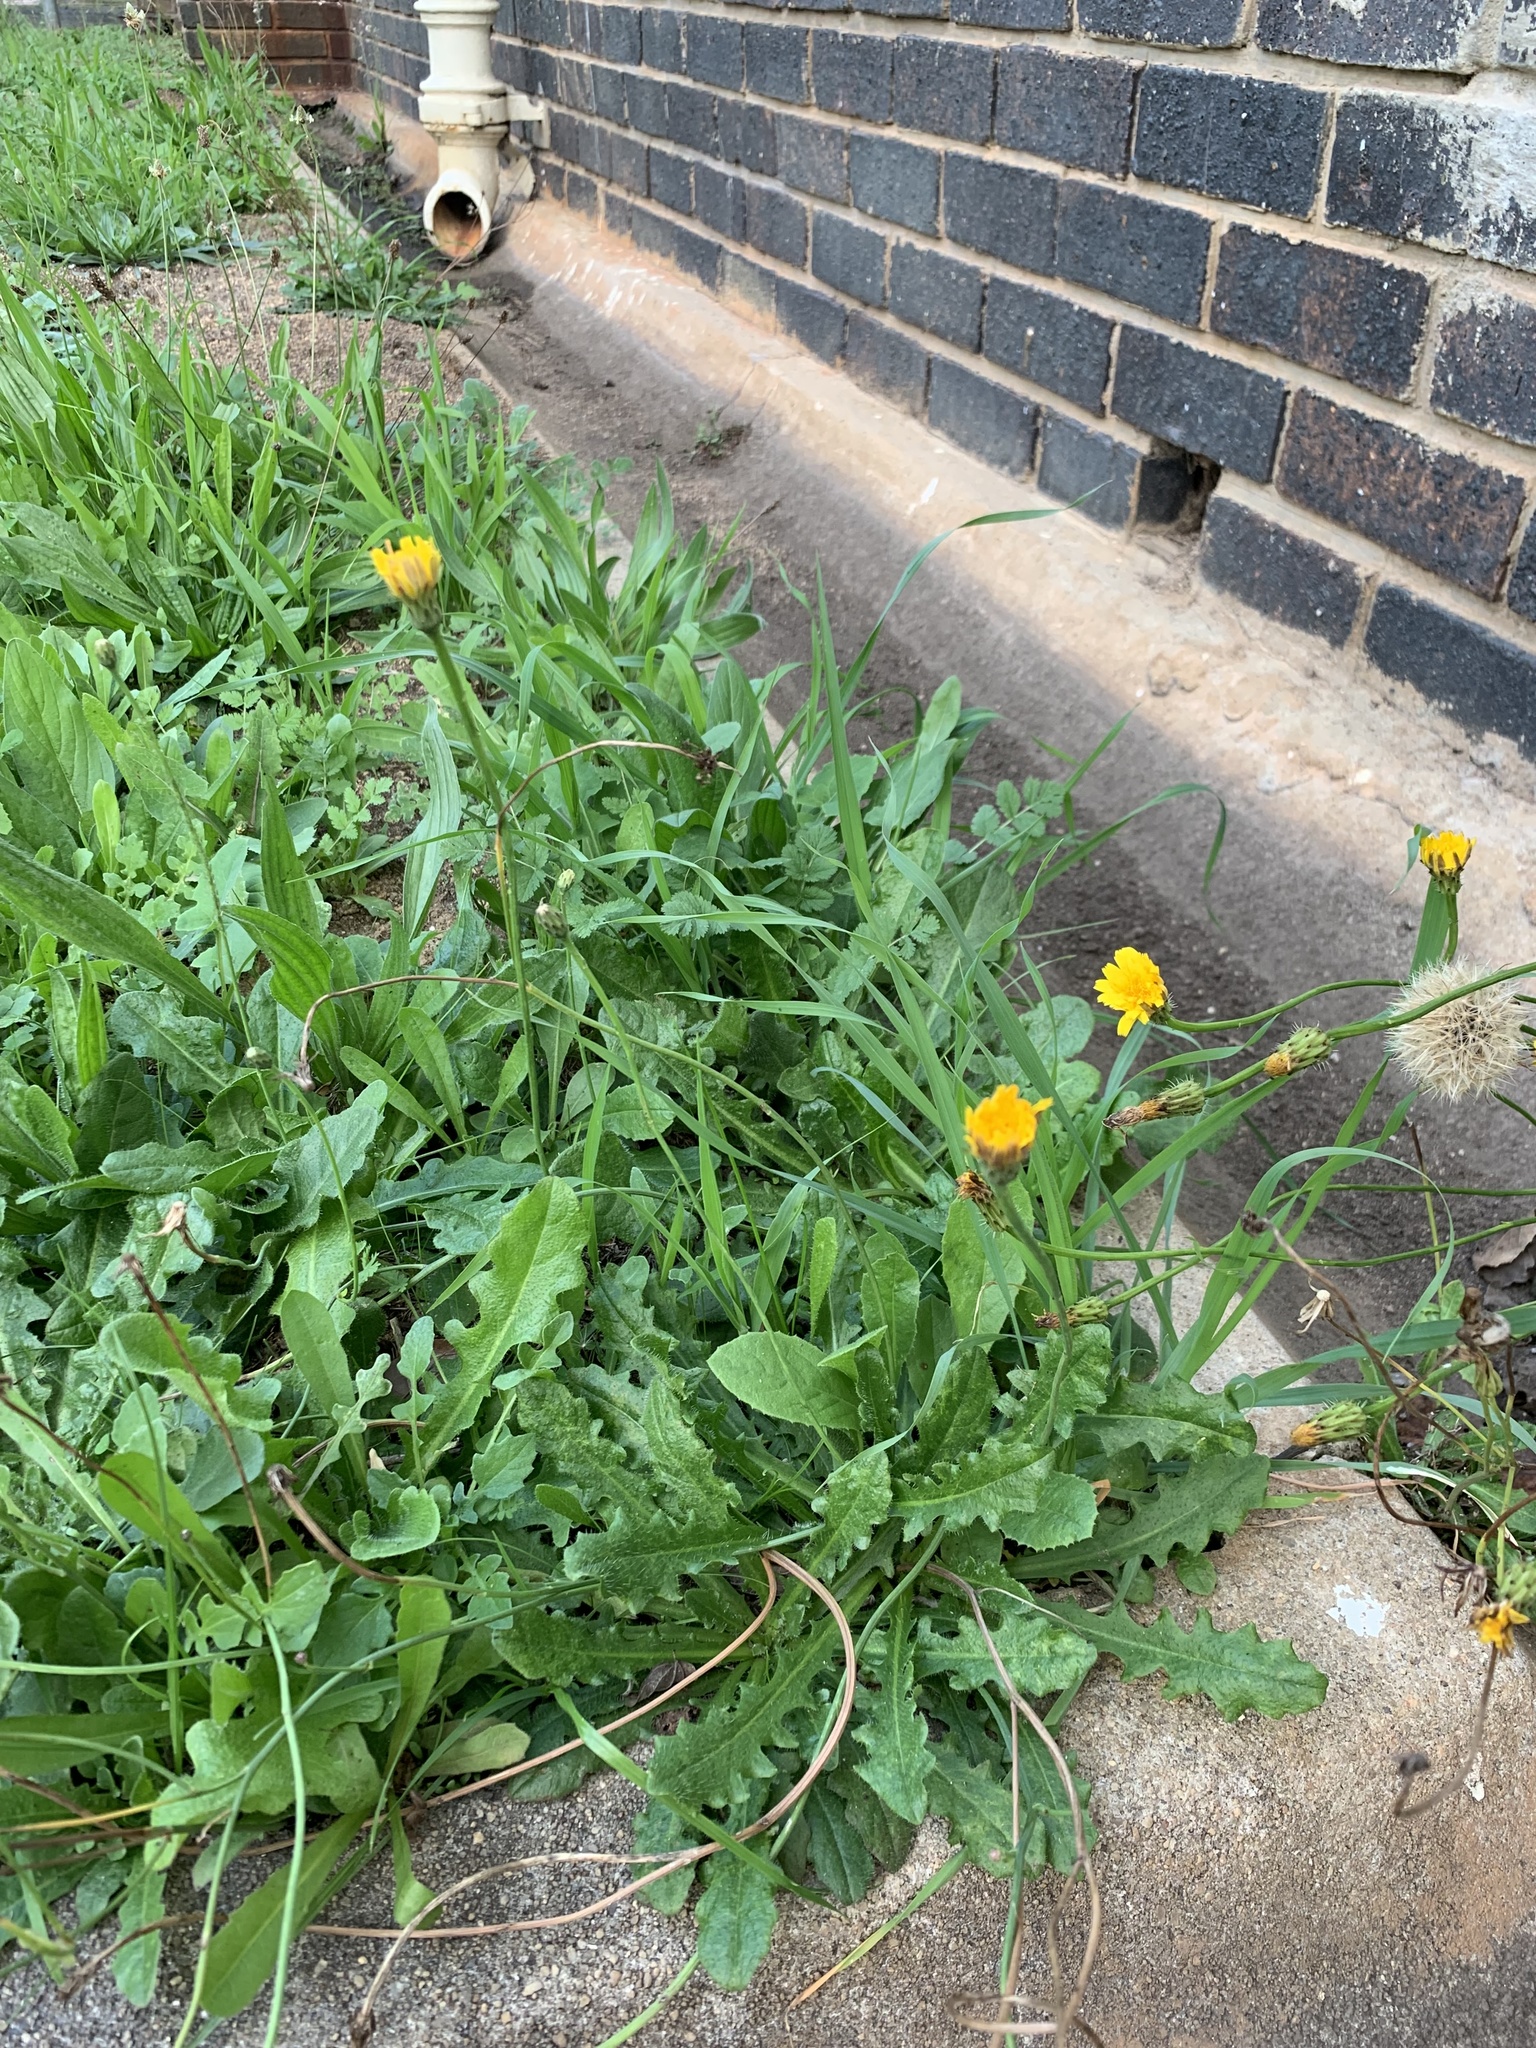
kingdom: Plantae
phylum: Tracheophyta
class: Magnoliopsida
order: Asterales
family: Asteraceae
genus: Hypochaeris
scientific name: Hypochaeris radicata
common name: Flatweed
